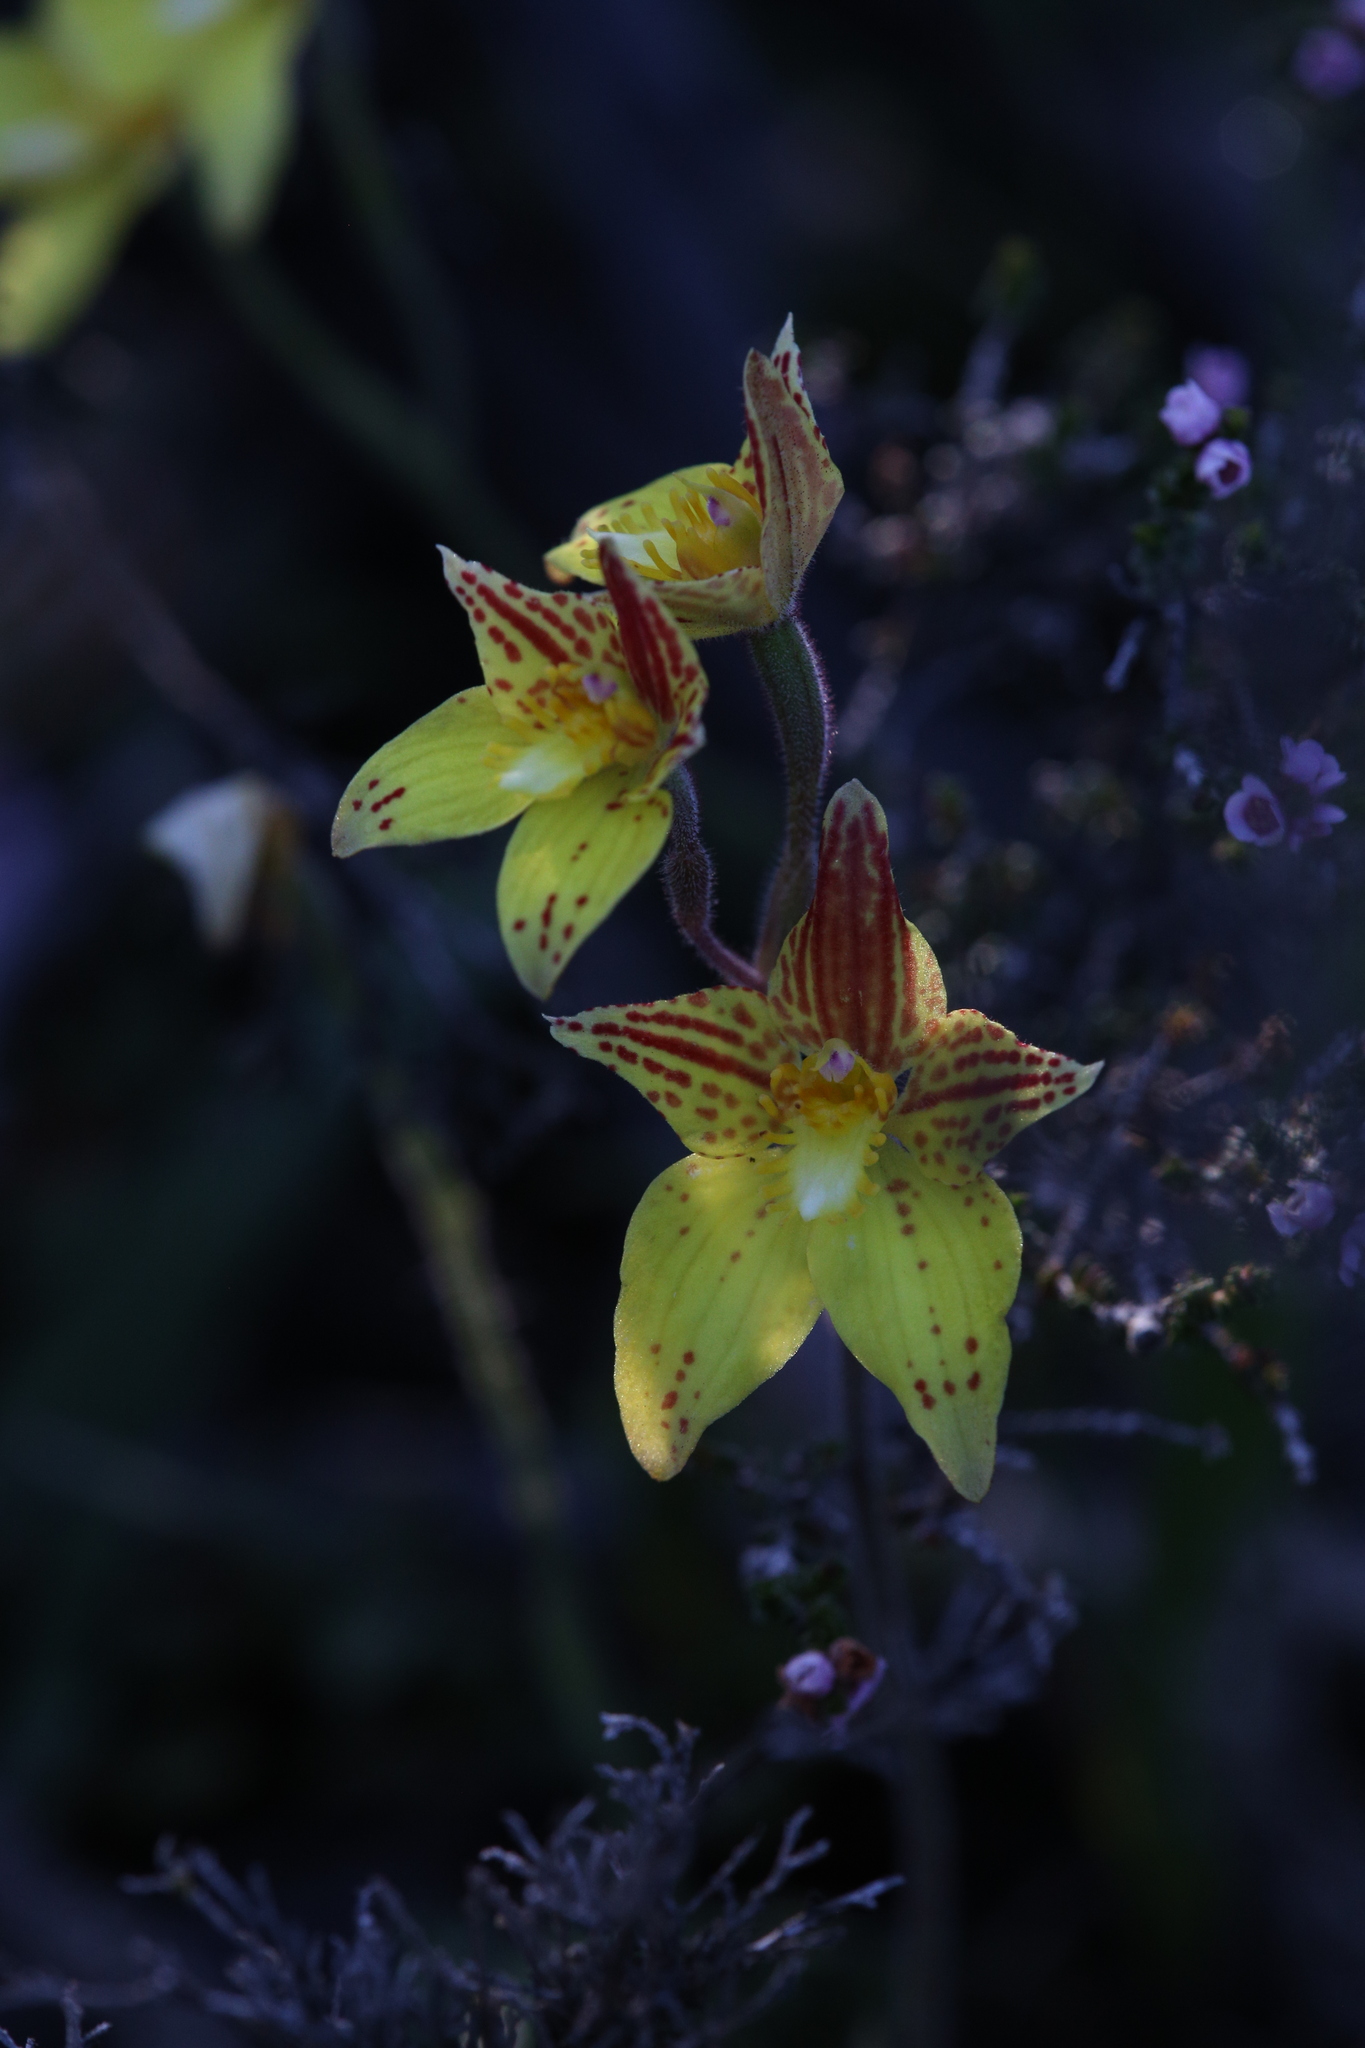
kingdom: Plantae
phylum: Tracheophyta
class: Liliopsida
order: Asparagales
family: Orchidaceae
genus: Caladenia
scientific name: Caladenia flava
